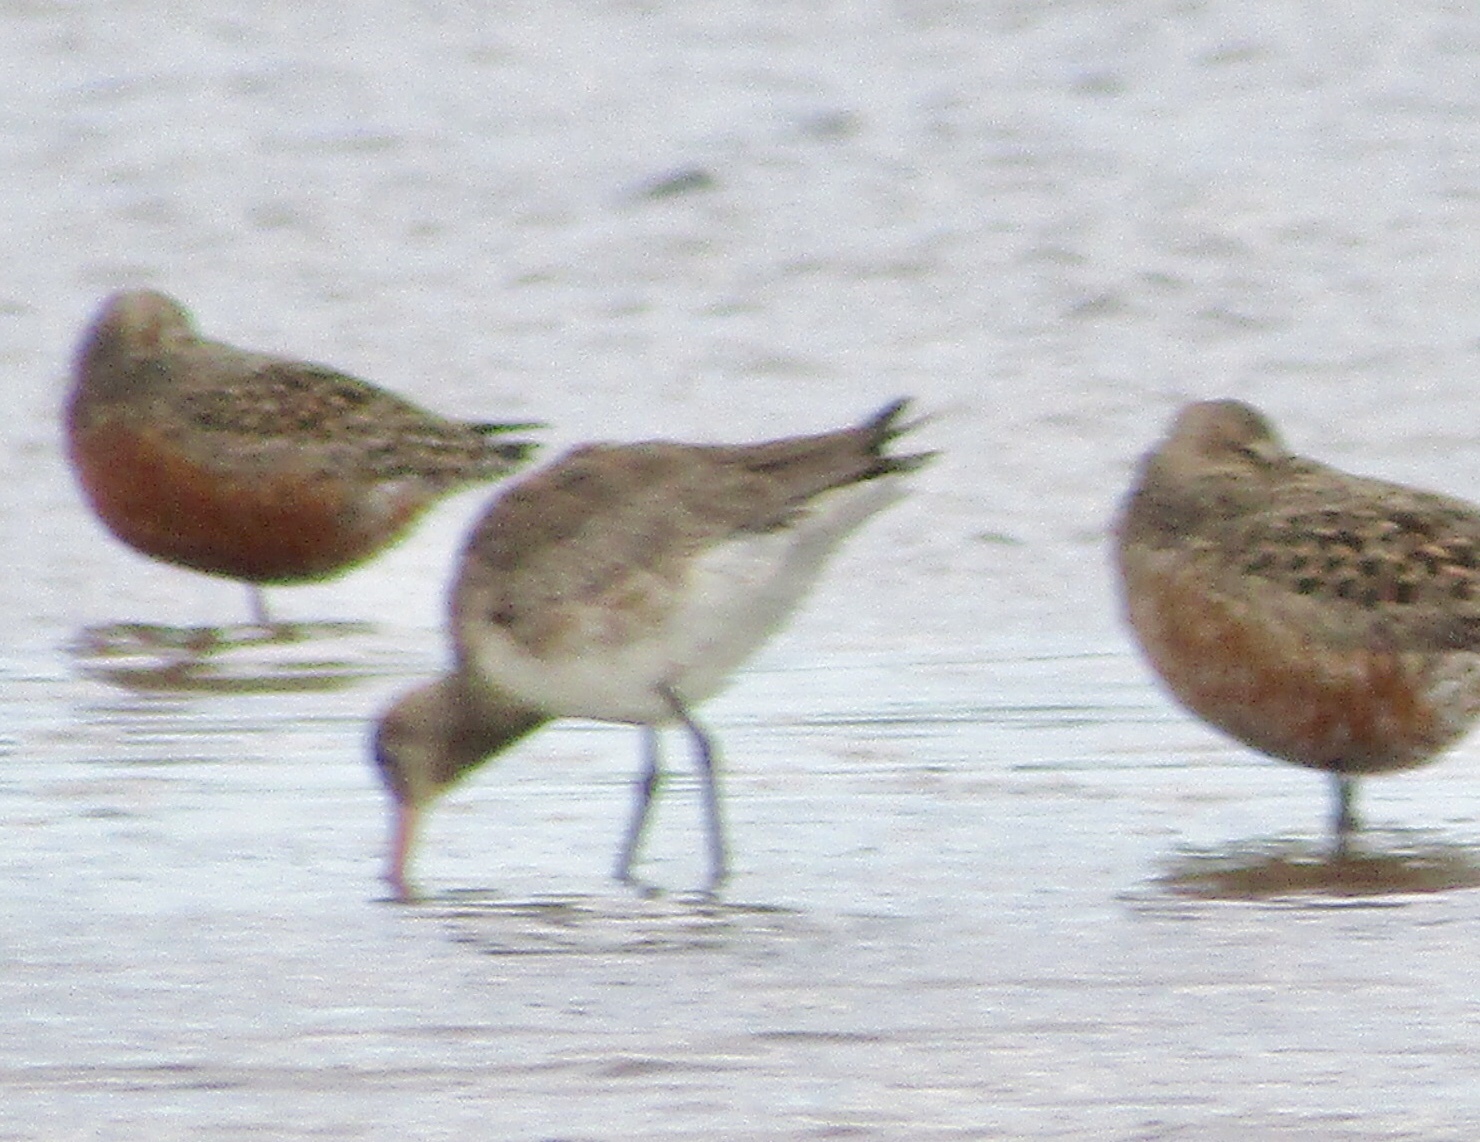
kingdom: Animalia
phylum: Chordata
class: Aves
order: Charadriiformes
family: Scolopacidae
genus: Calidris
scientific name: Calidris canutus
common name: Red knot
